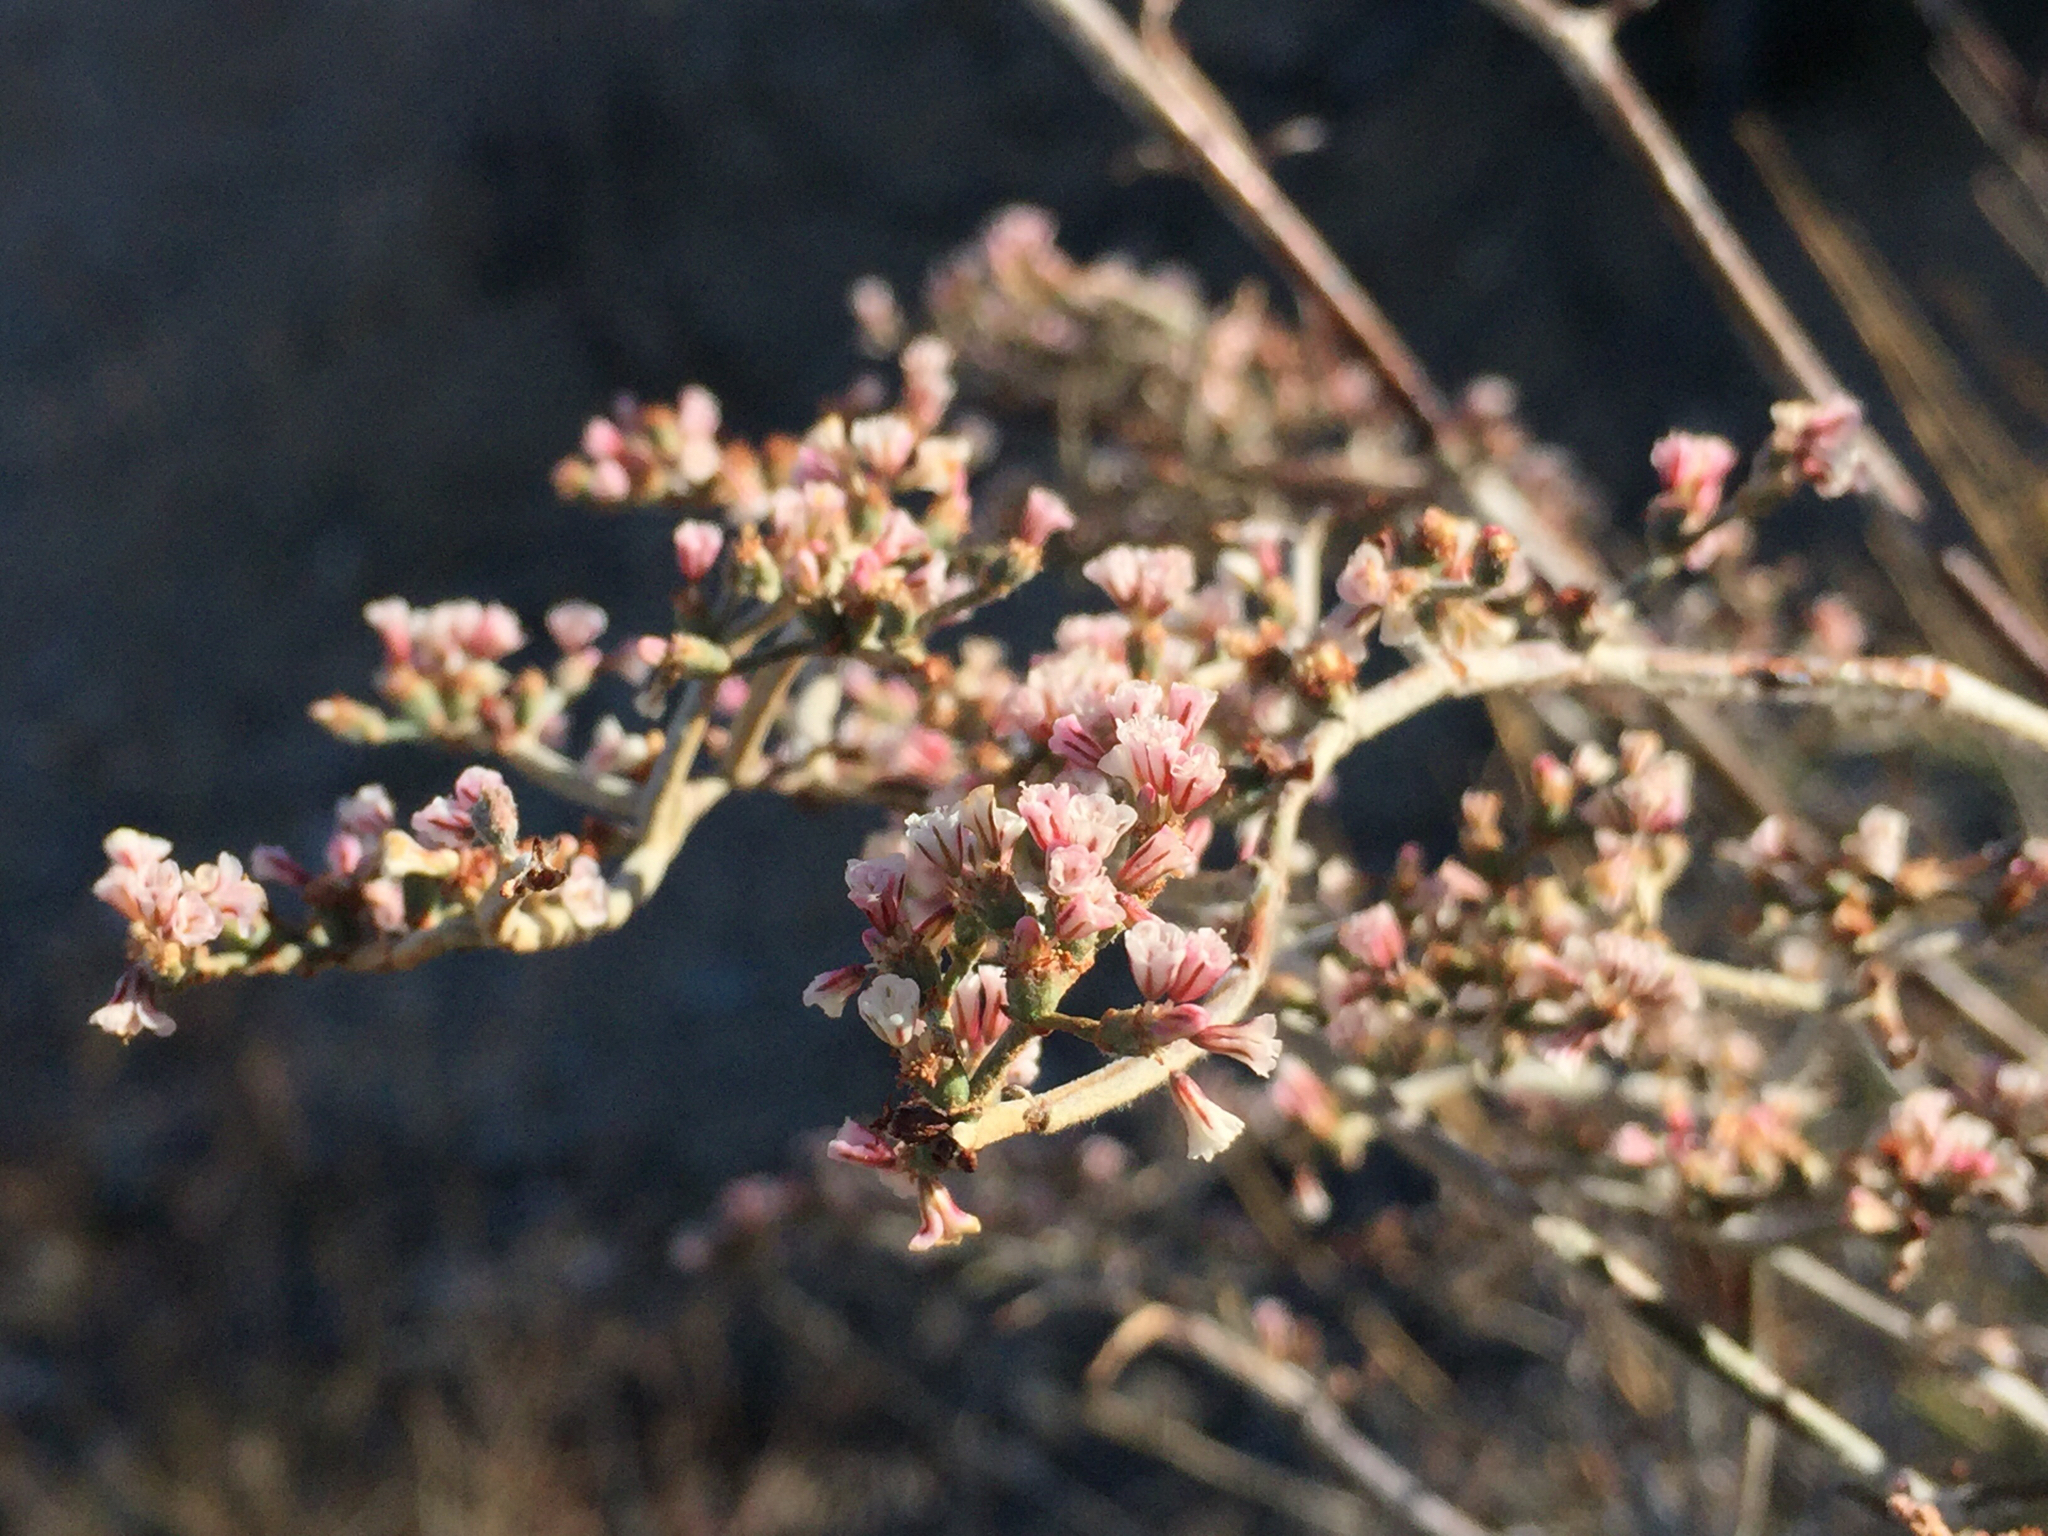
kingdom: Plantae
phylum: Tracheophyta
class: Magnoliopsida
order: Caryophyllales
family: Polygonaceae
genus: Eriogonum
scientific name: Eriogonum plumatella
